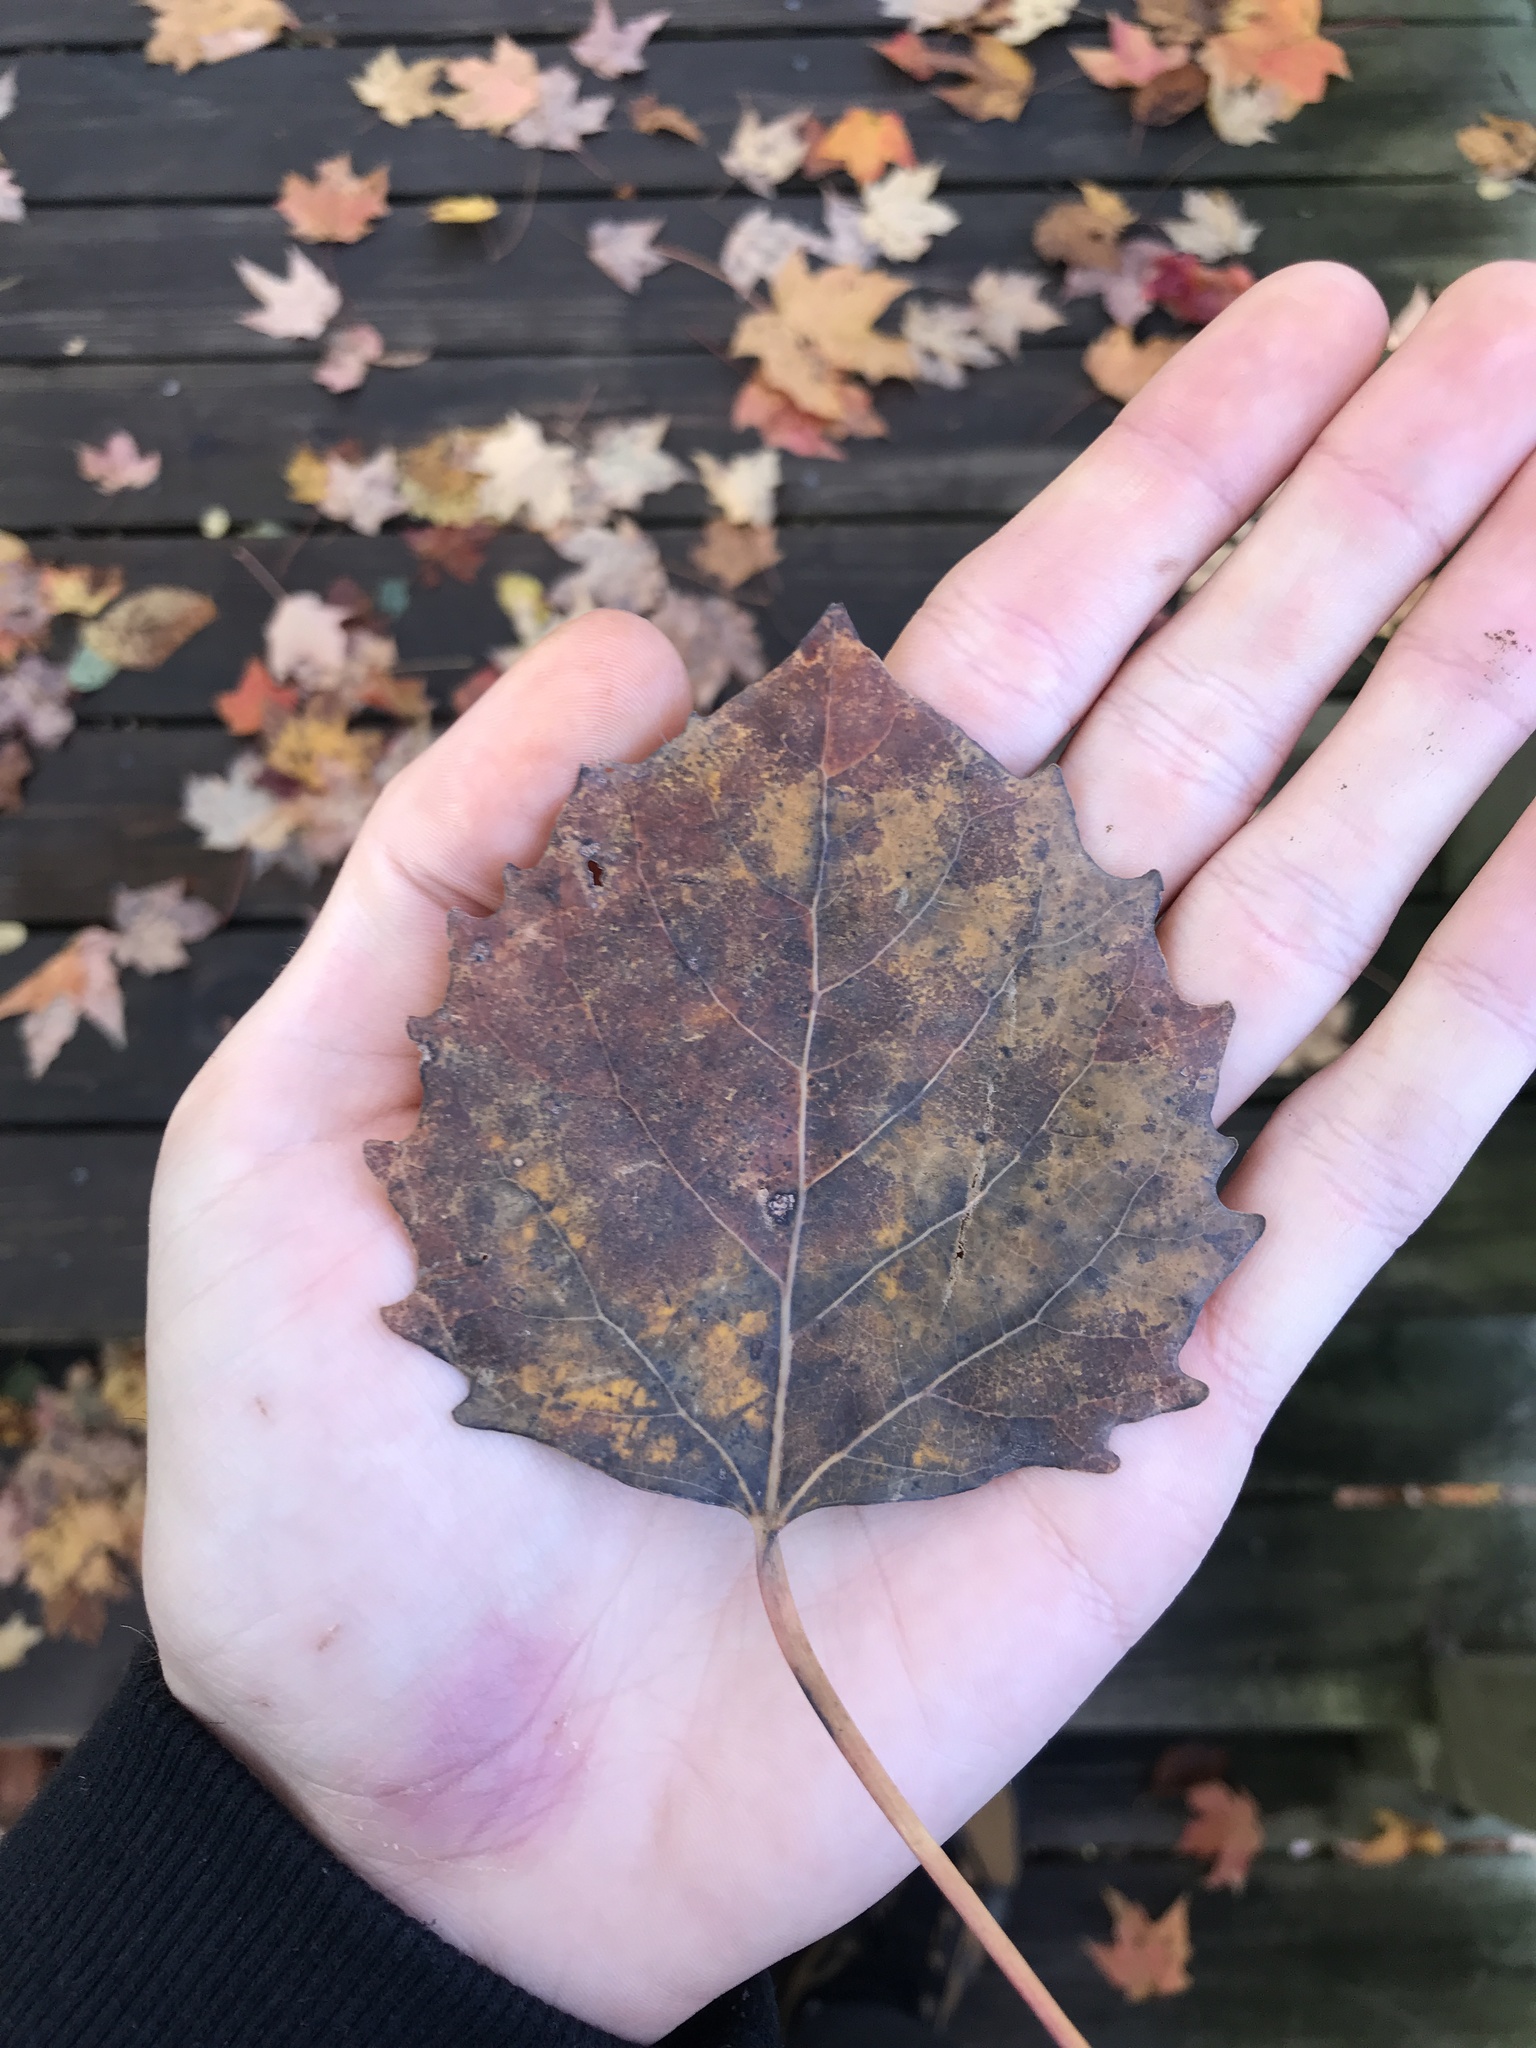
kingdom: Plantae
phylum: Tracheophyta
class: Magnoliopsida
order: Malpighiales
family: Salicaceae
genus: Populus
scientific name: Populus grandidentata
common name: Bigtooth aspen
